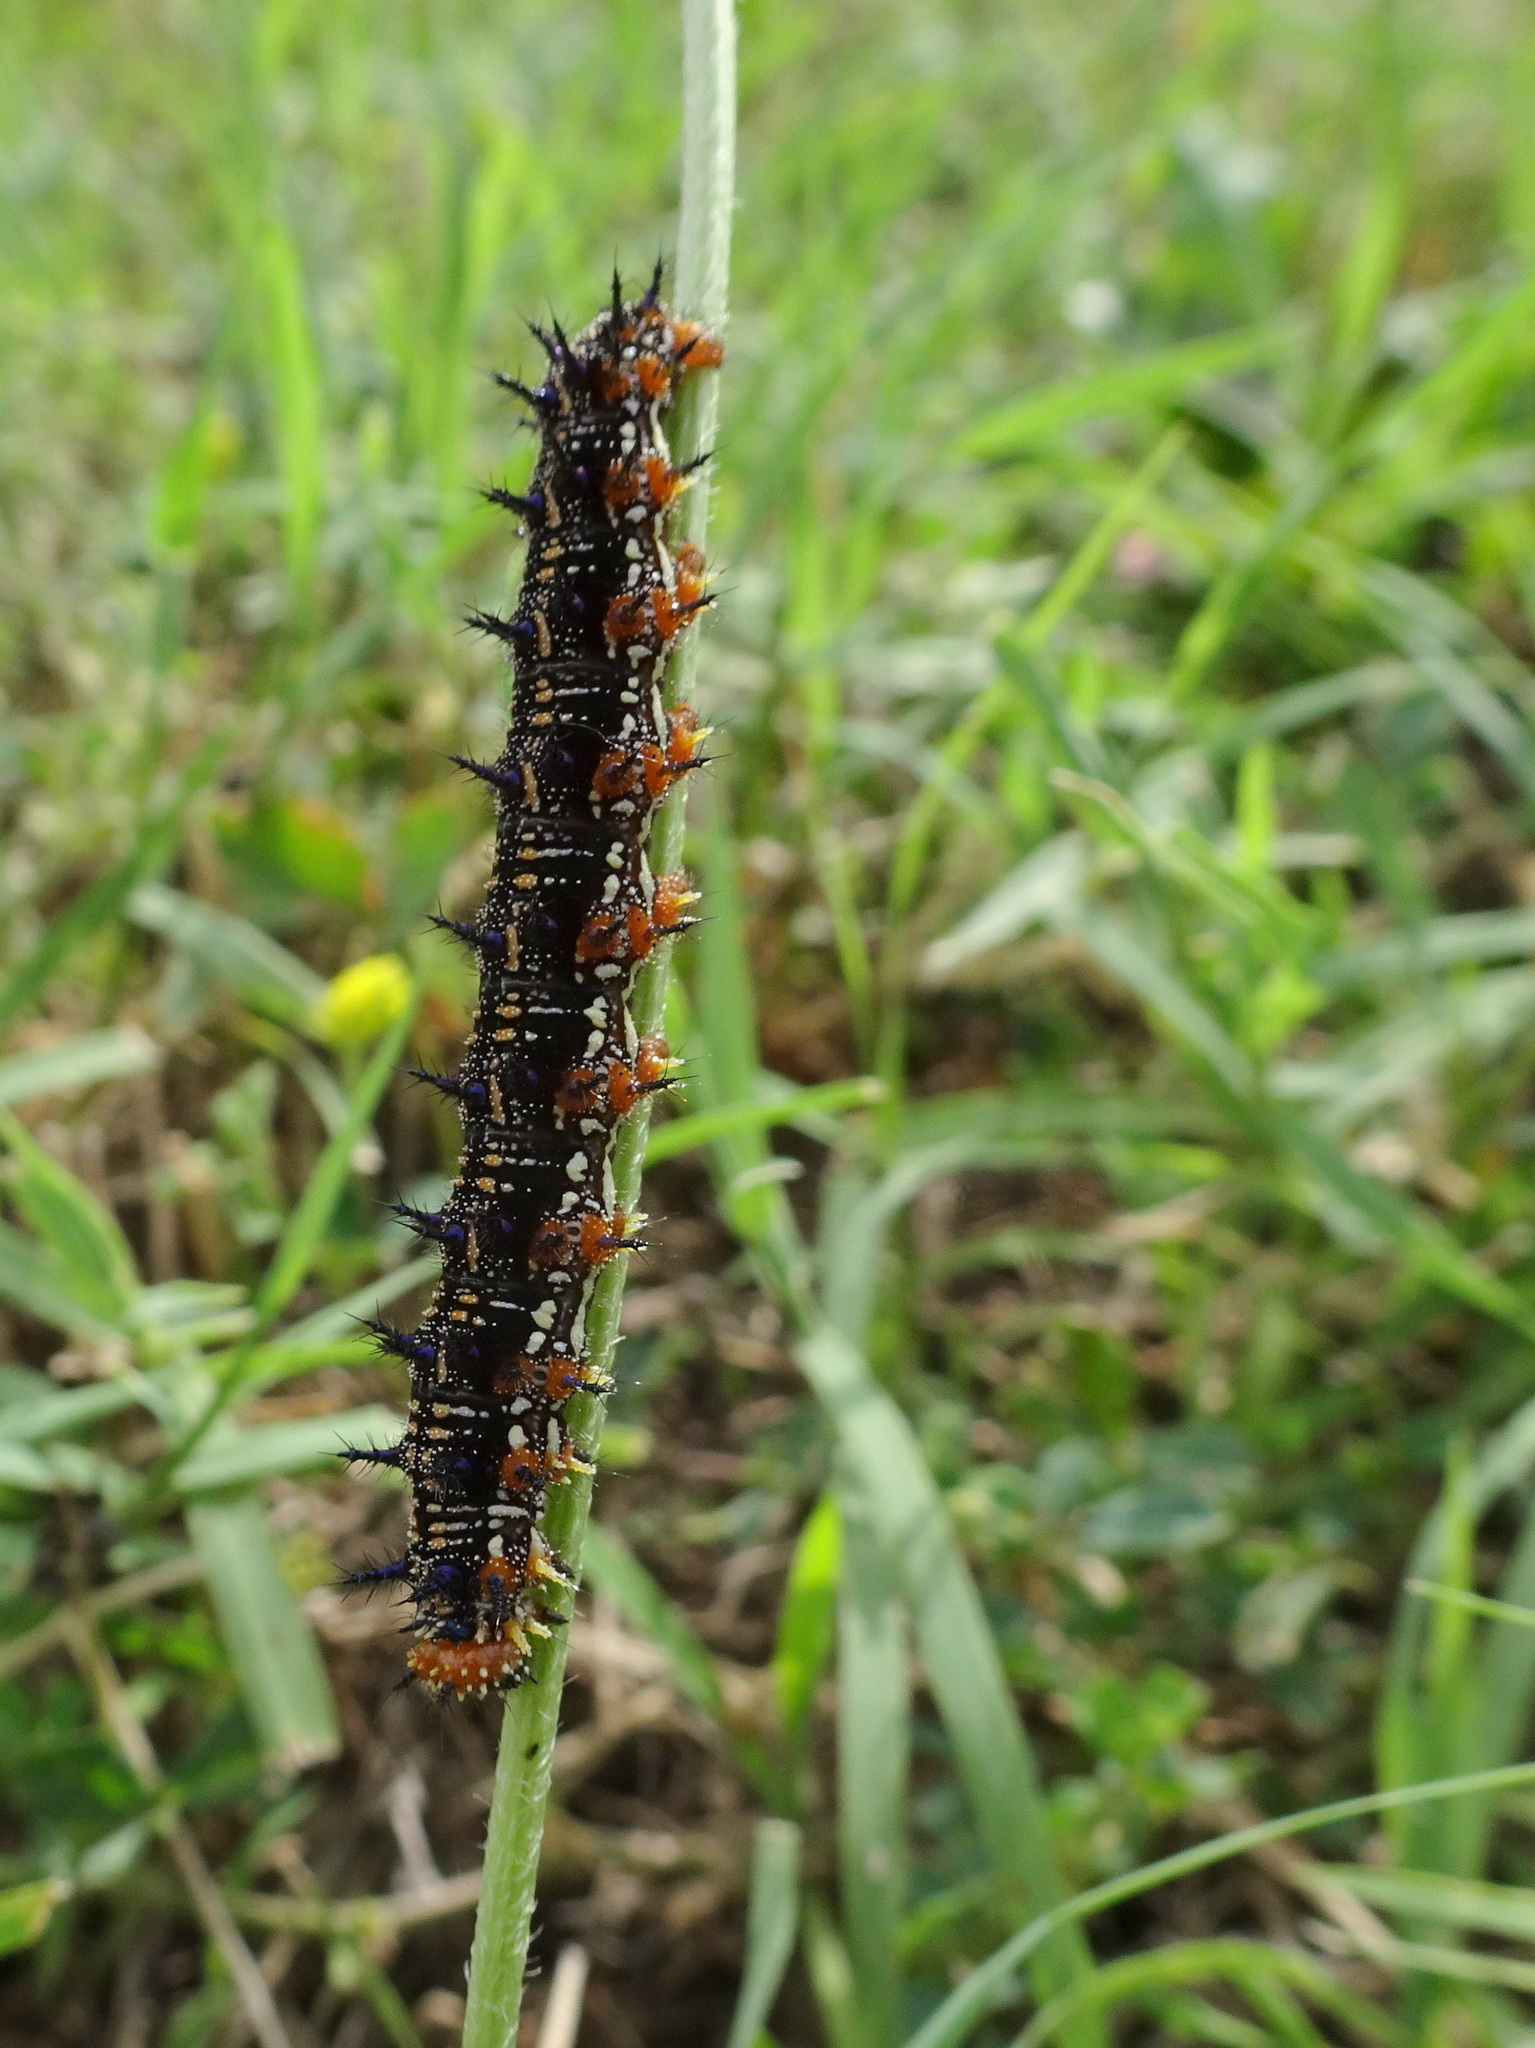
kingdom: Animalia
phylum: Arthropoda
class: Insecta
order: Lepidoptera
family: Nymphalidae
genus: Junonia
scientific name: Junonia coenia
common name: Common buckeye
